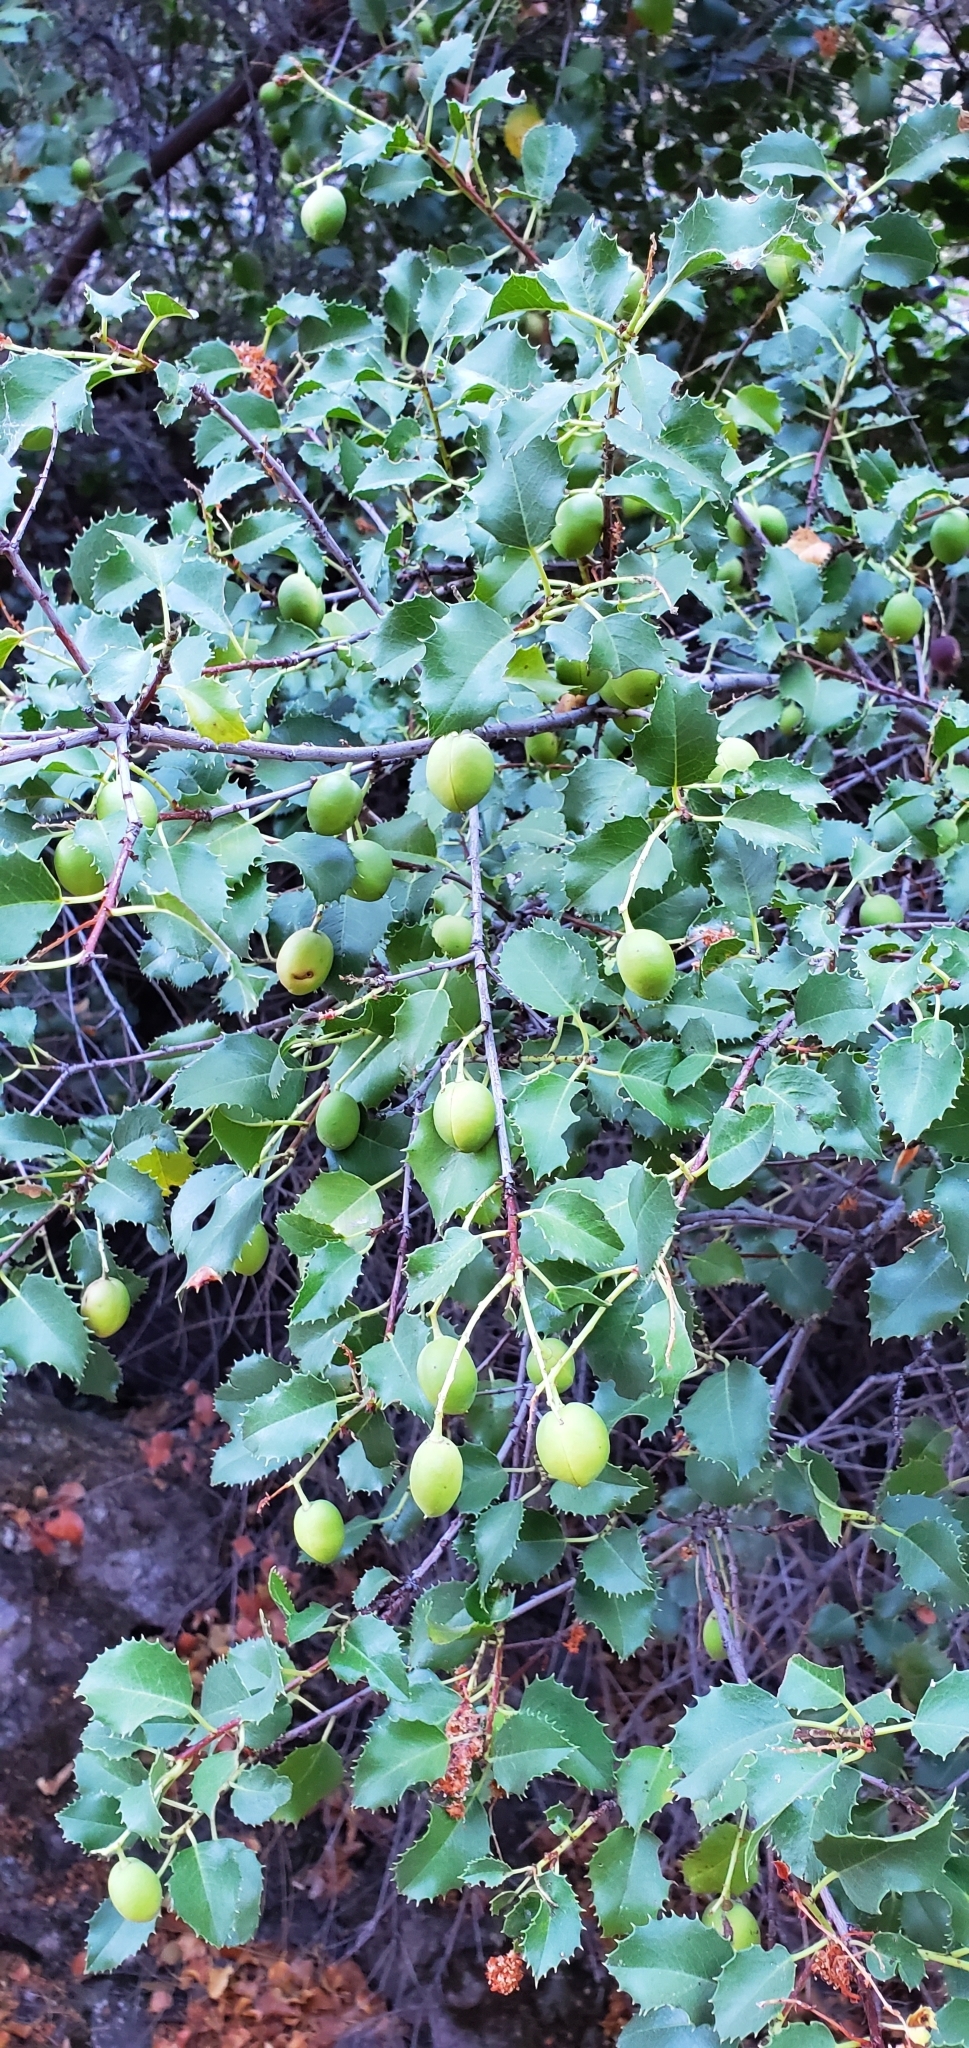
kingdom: Plantae
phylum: Tracheophyta
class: Magnoliopsida
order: Rosales
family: Rosaceae
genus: Prunus
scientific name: Prunus ilicifolia
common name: Hollyleaf cherry
